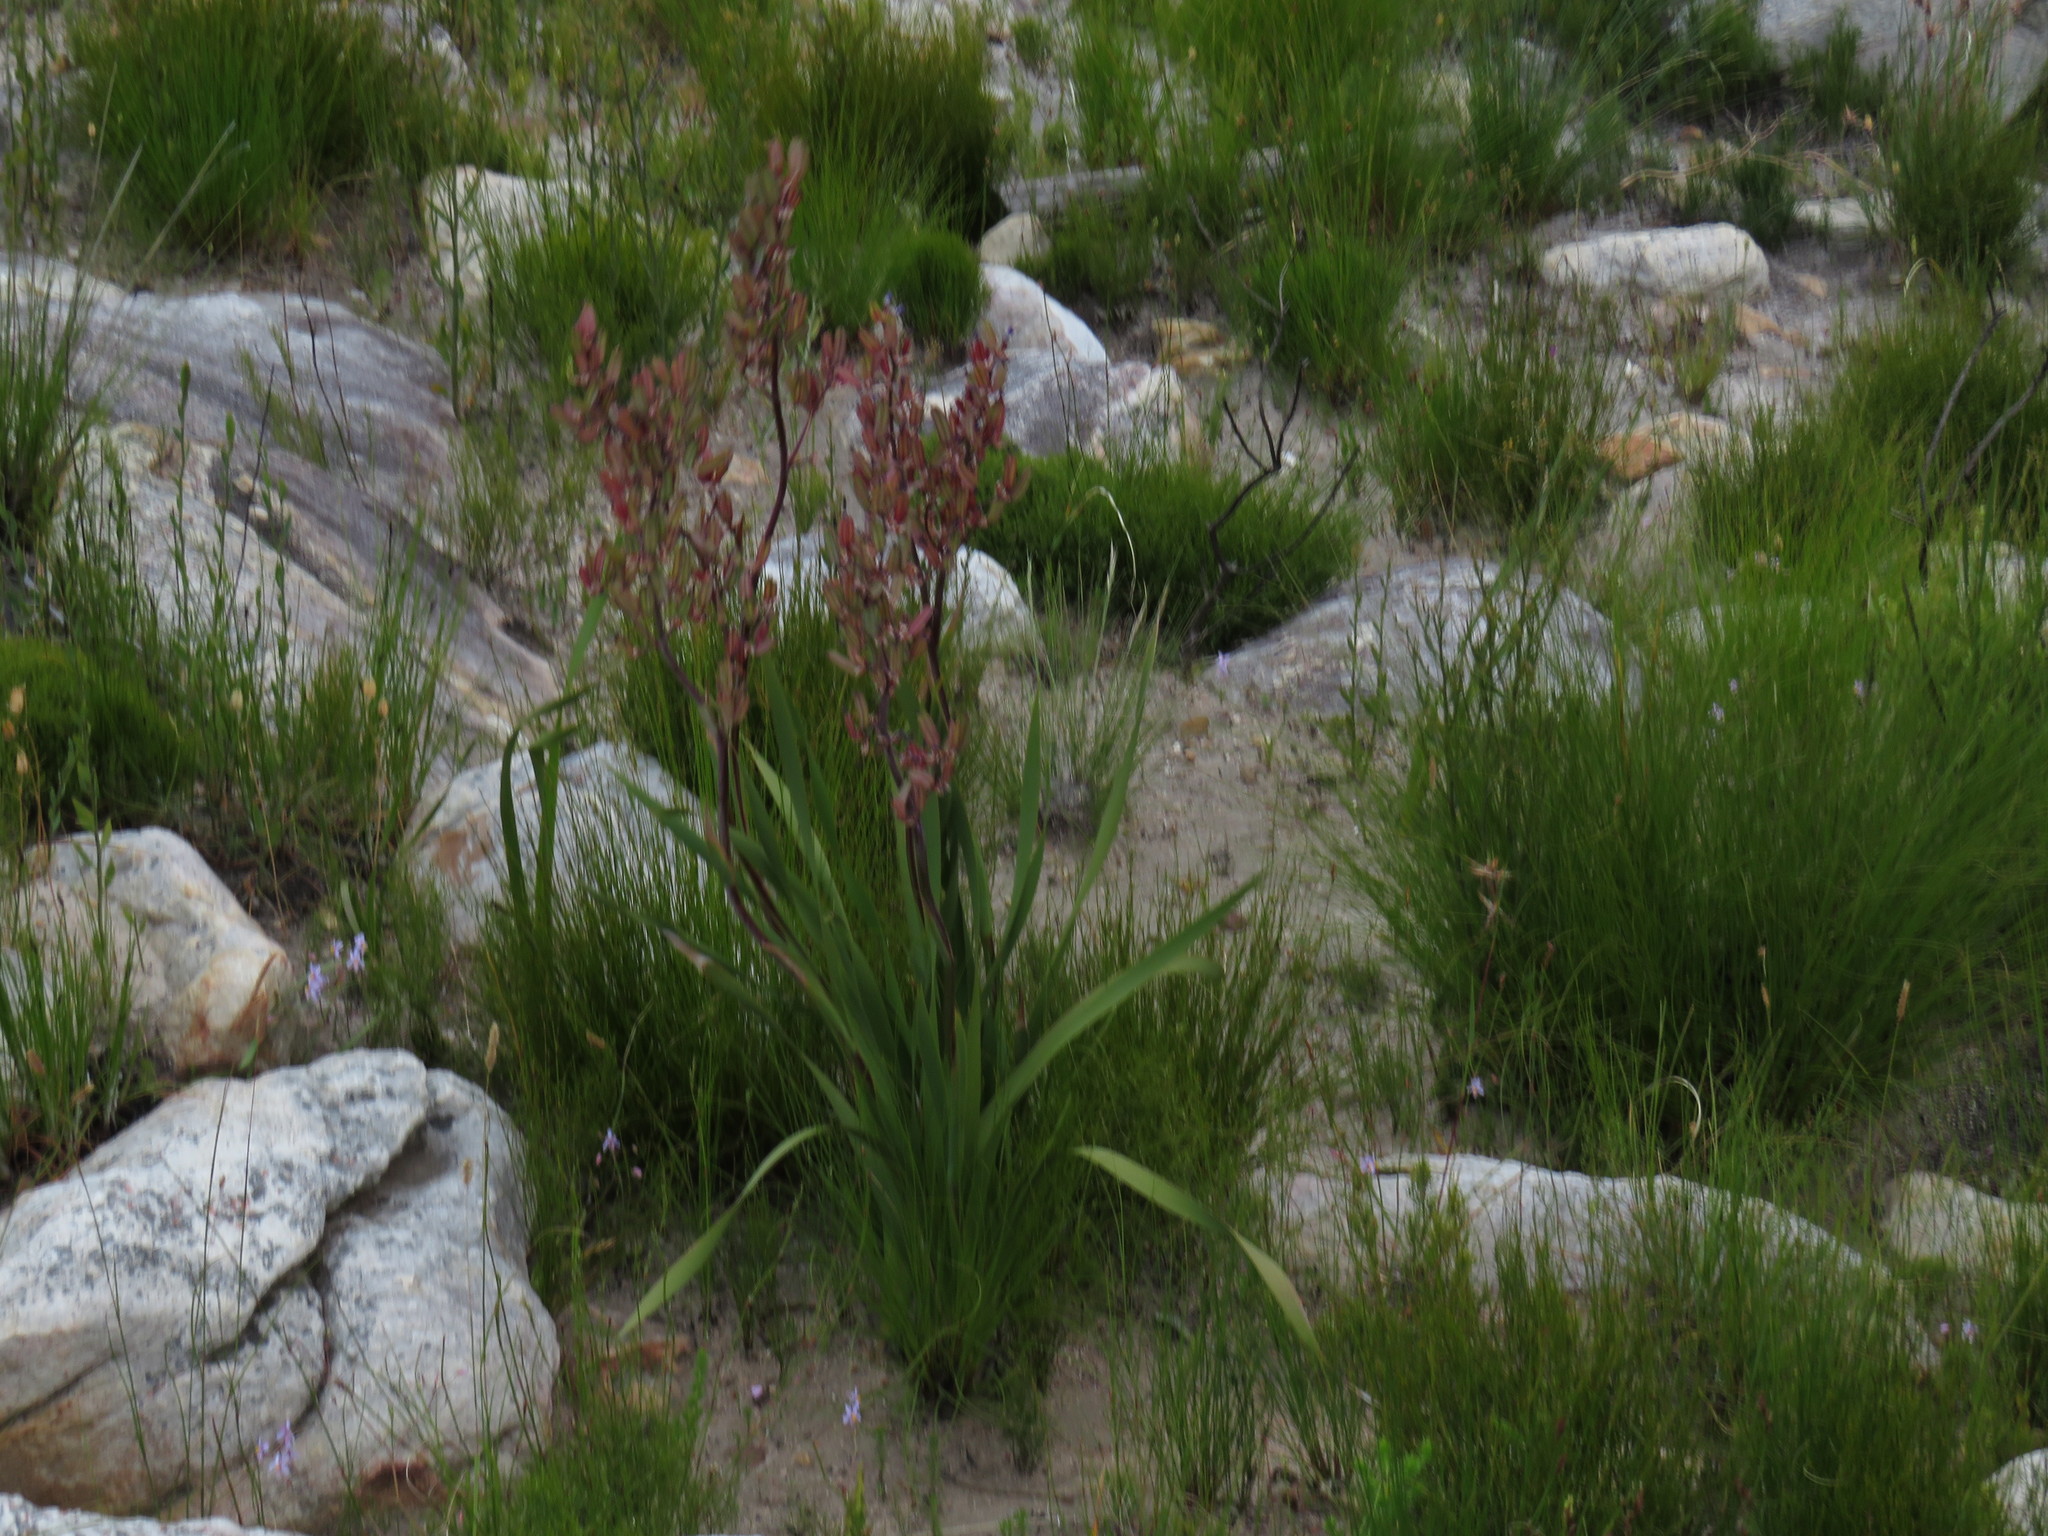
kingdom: Plantae
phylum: Tracheophyta
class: Liliopsida
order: Asparagales
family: Iridaceae
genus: Aristea
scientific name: Aristea bakeri
